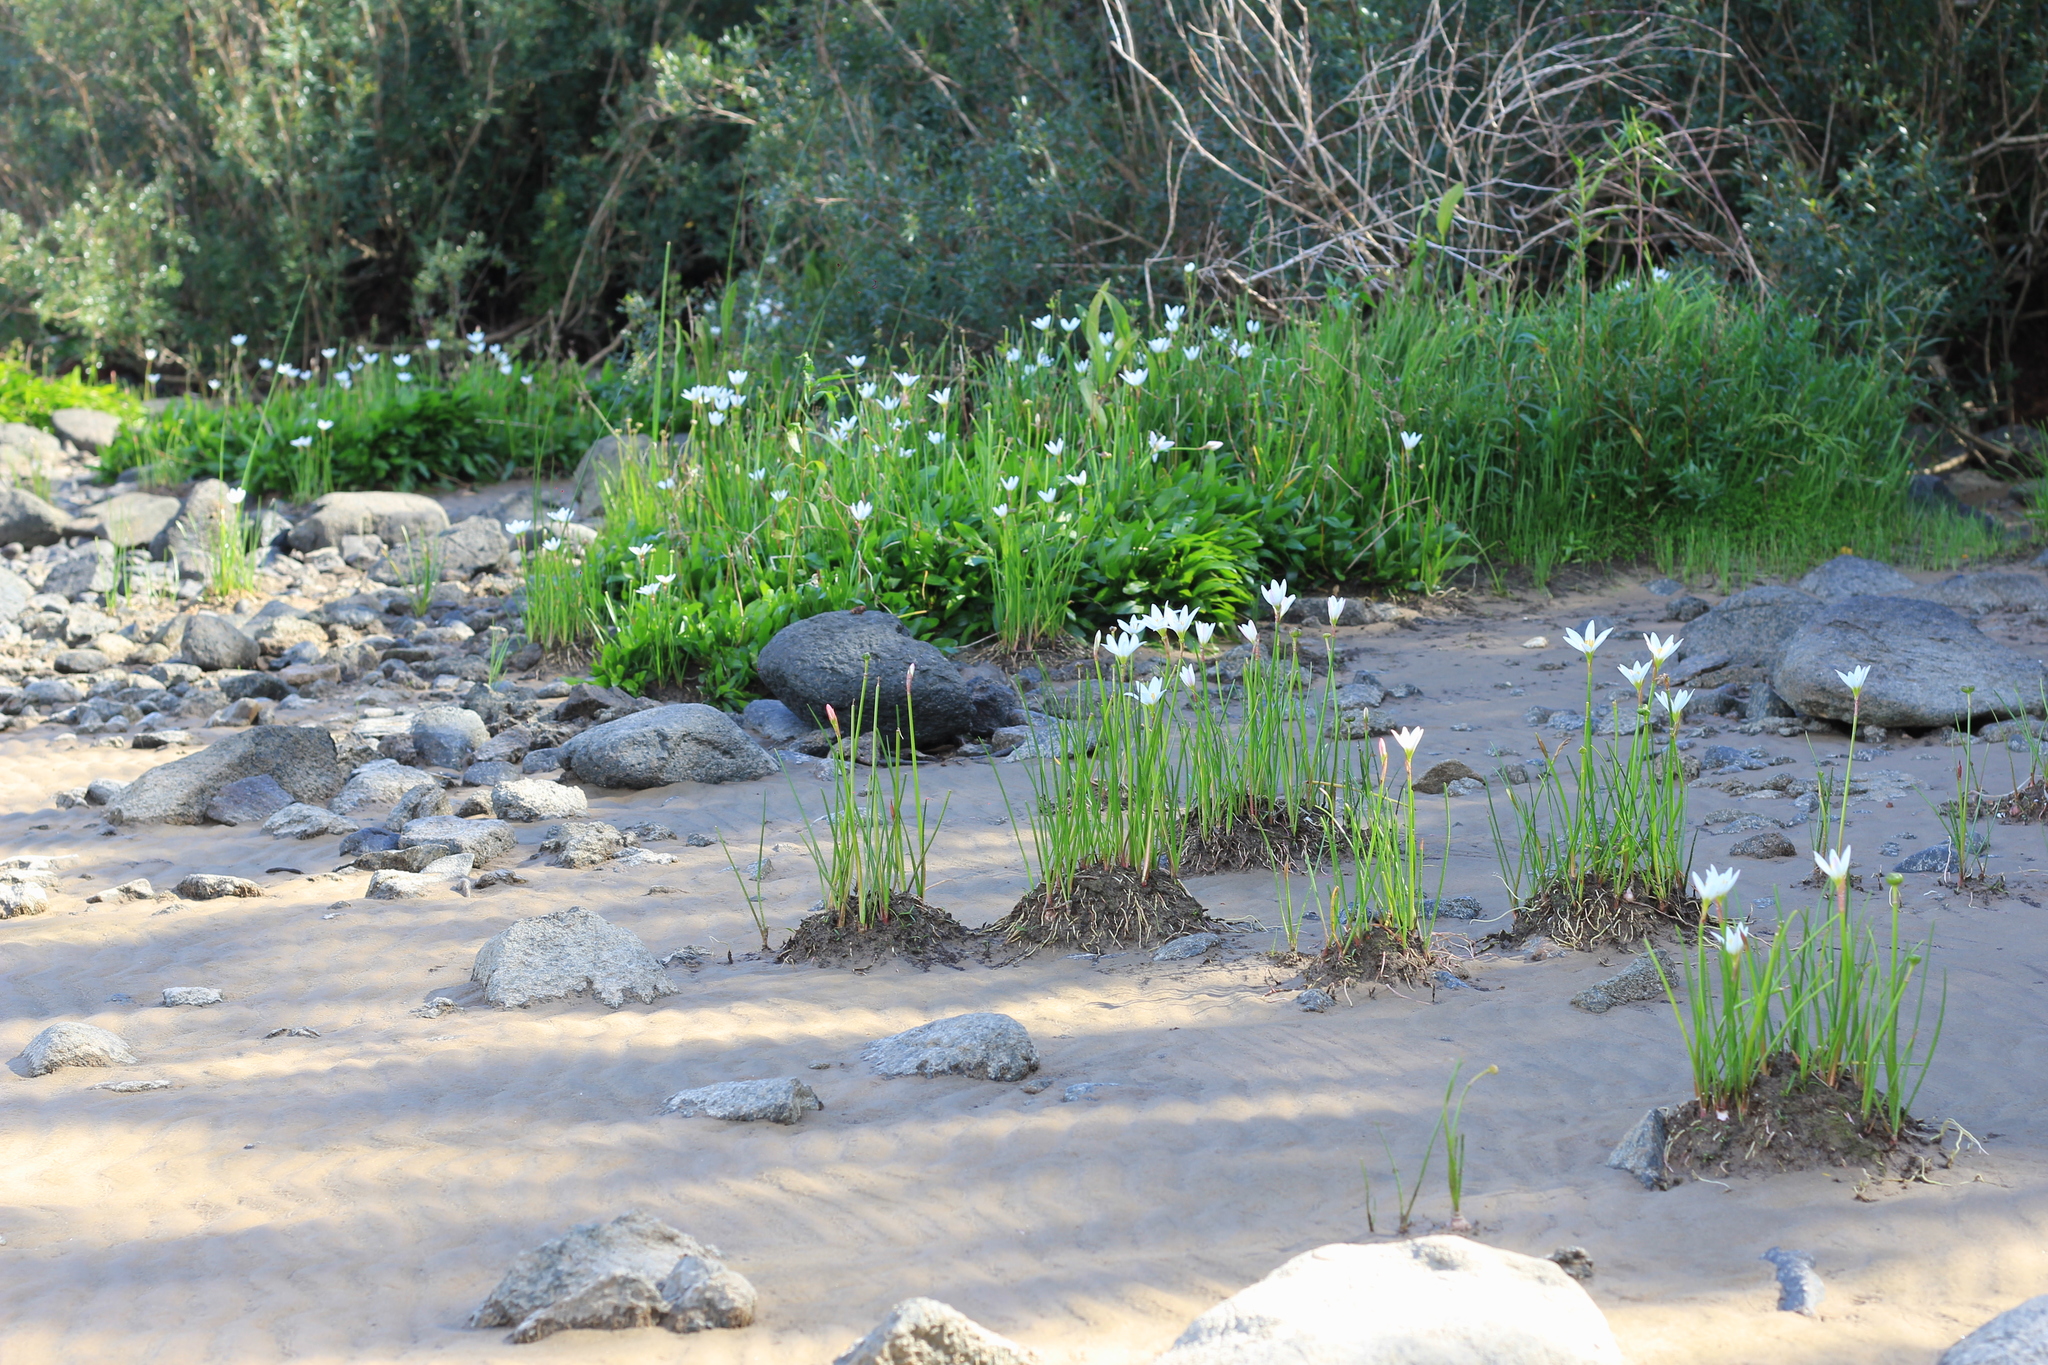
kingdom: Plantae
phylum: Tracheophyta
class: Liliopsida
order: Asparagales
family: Amaryllidaceae
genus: Zephyranthes
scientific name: Zephyranthes candida
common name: Autumn zephyrlily
